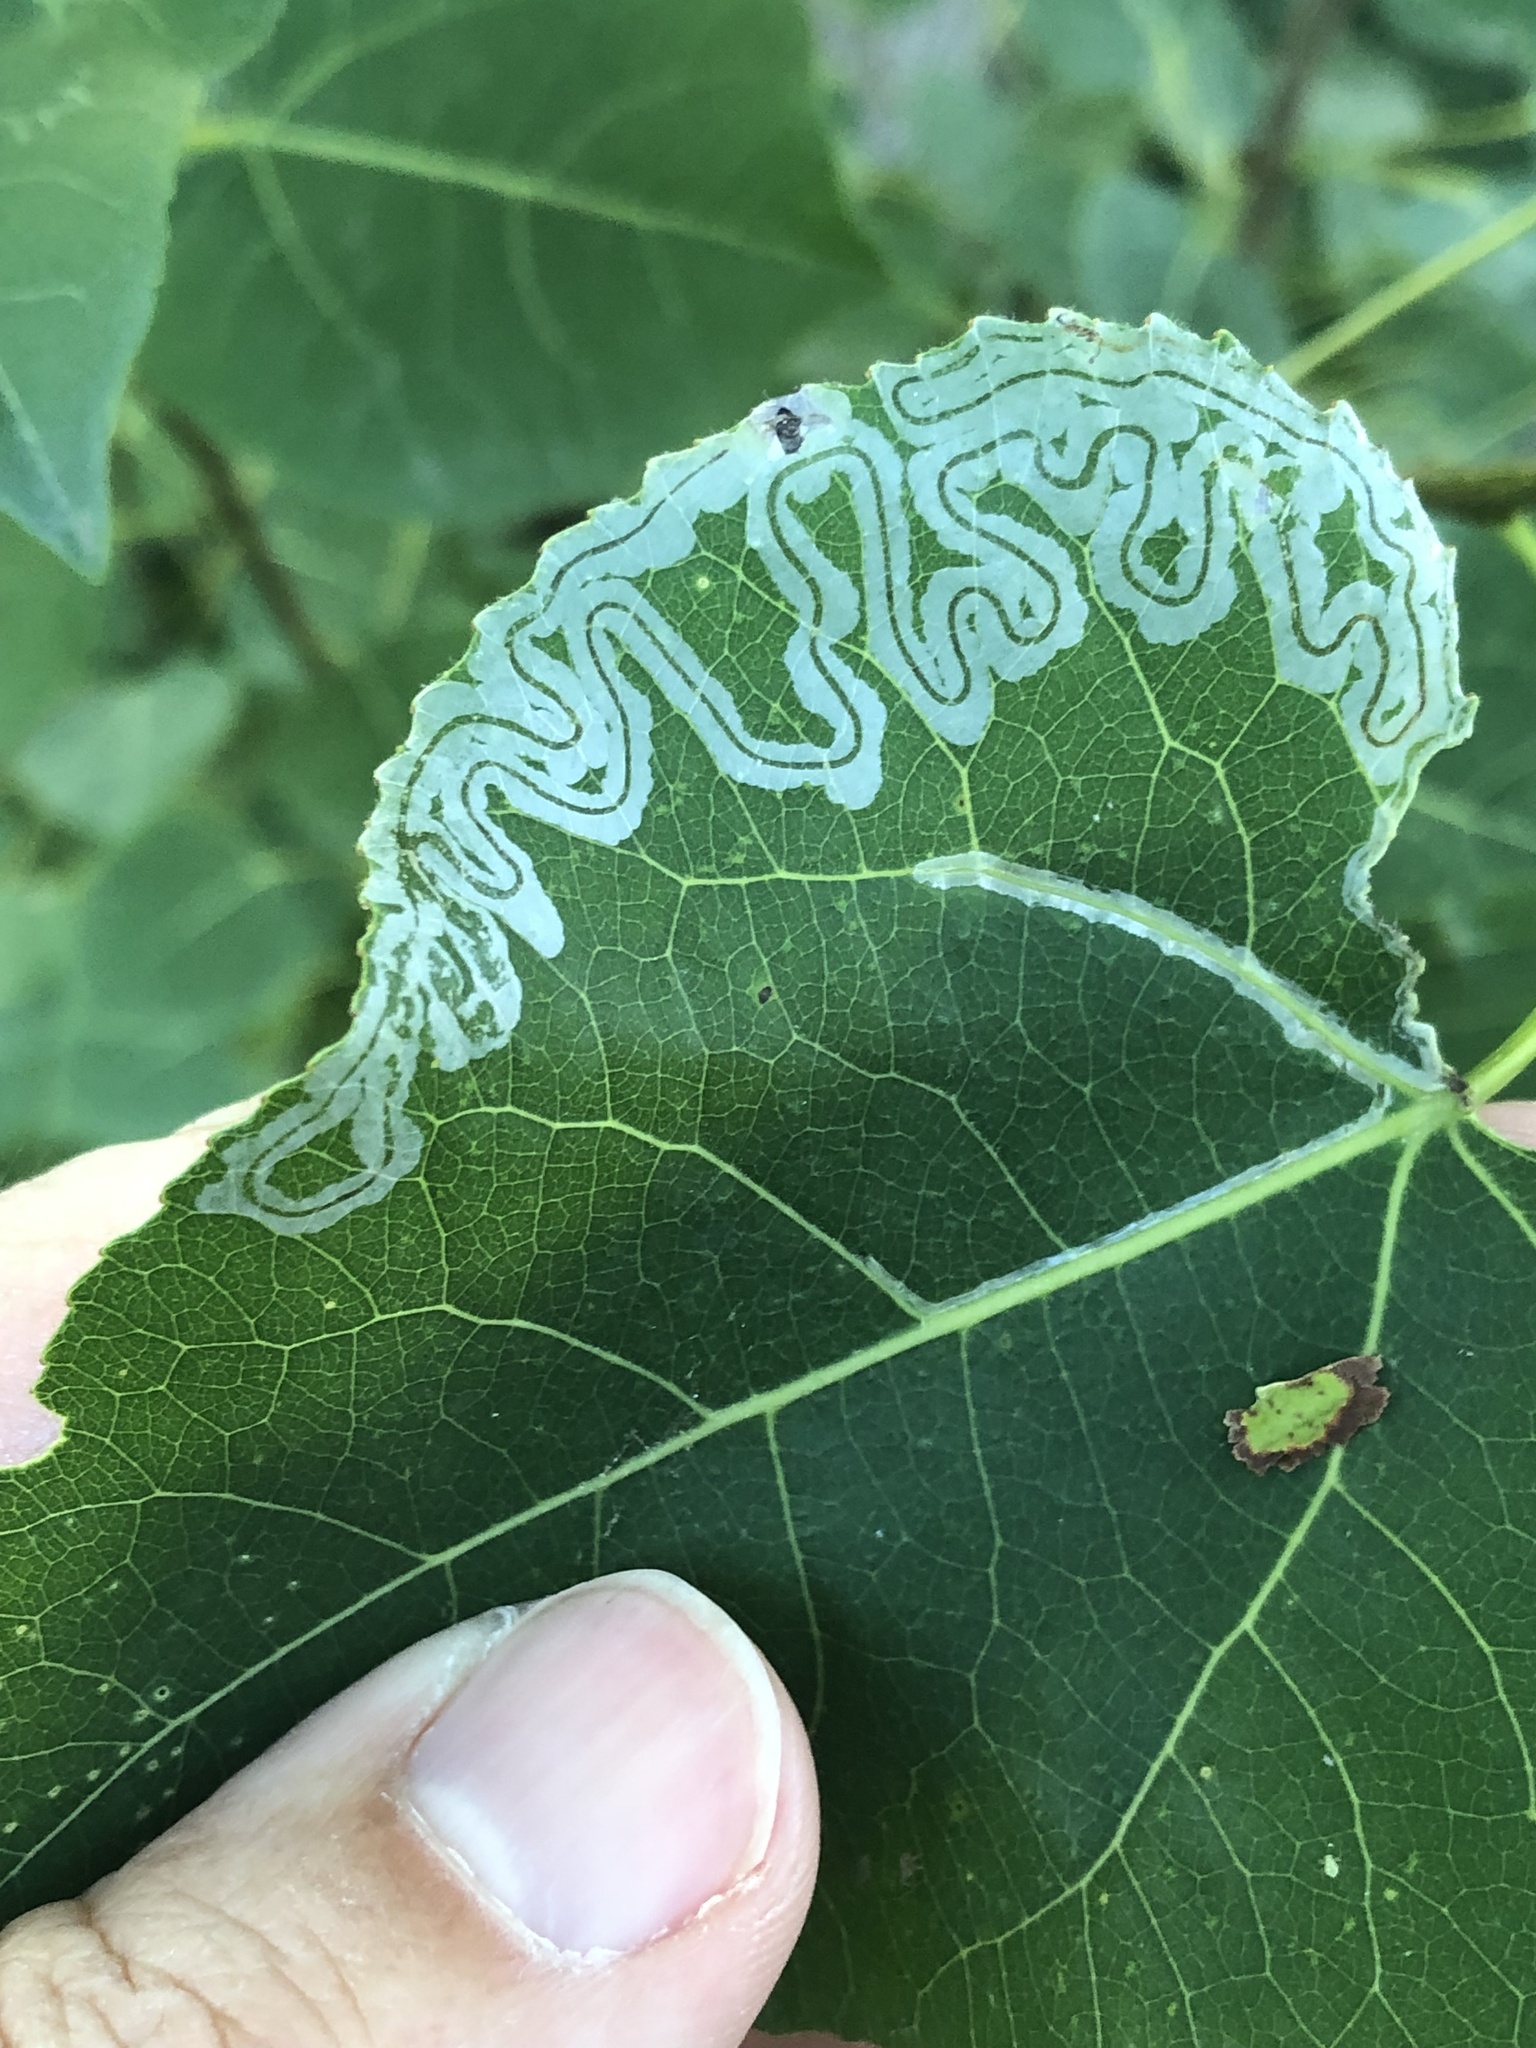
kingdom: Animalia
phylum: Arthropoda
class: Insecta
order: Lepidoptera
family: Gracillariidae
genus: Phyllocnistis
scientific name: Phyllocnistis populiella
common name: Aspen serpentine leafminer moth
